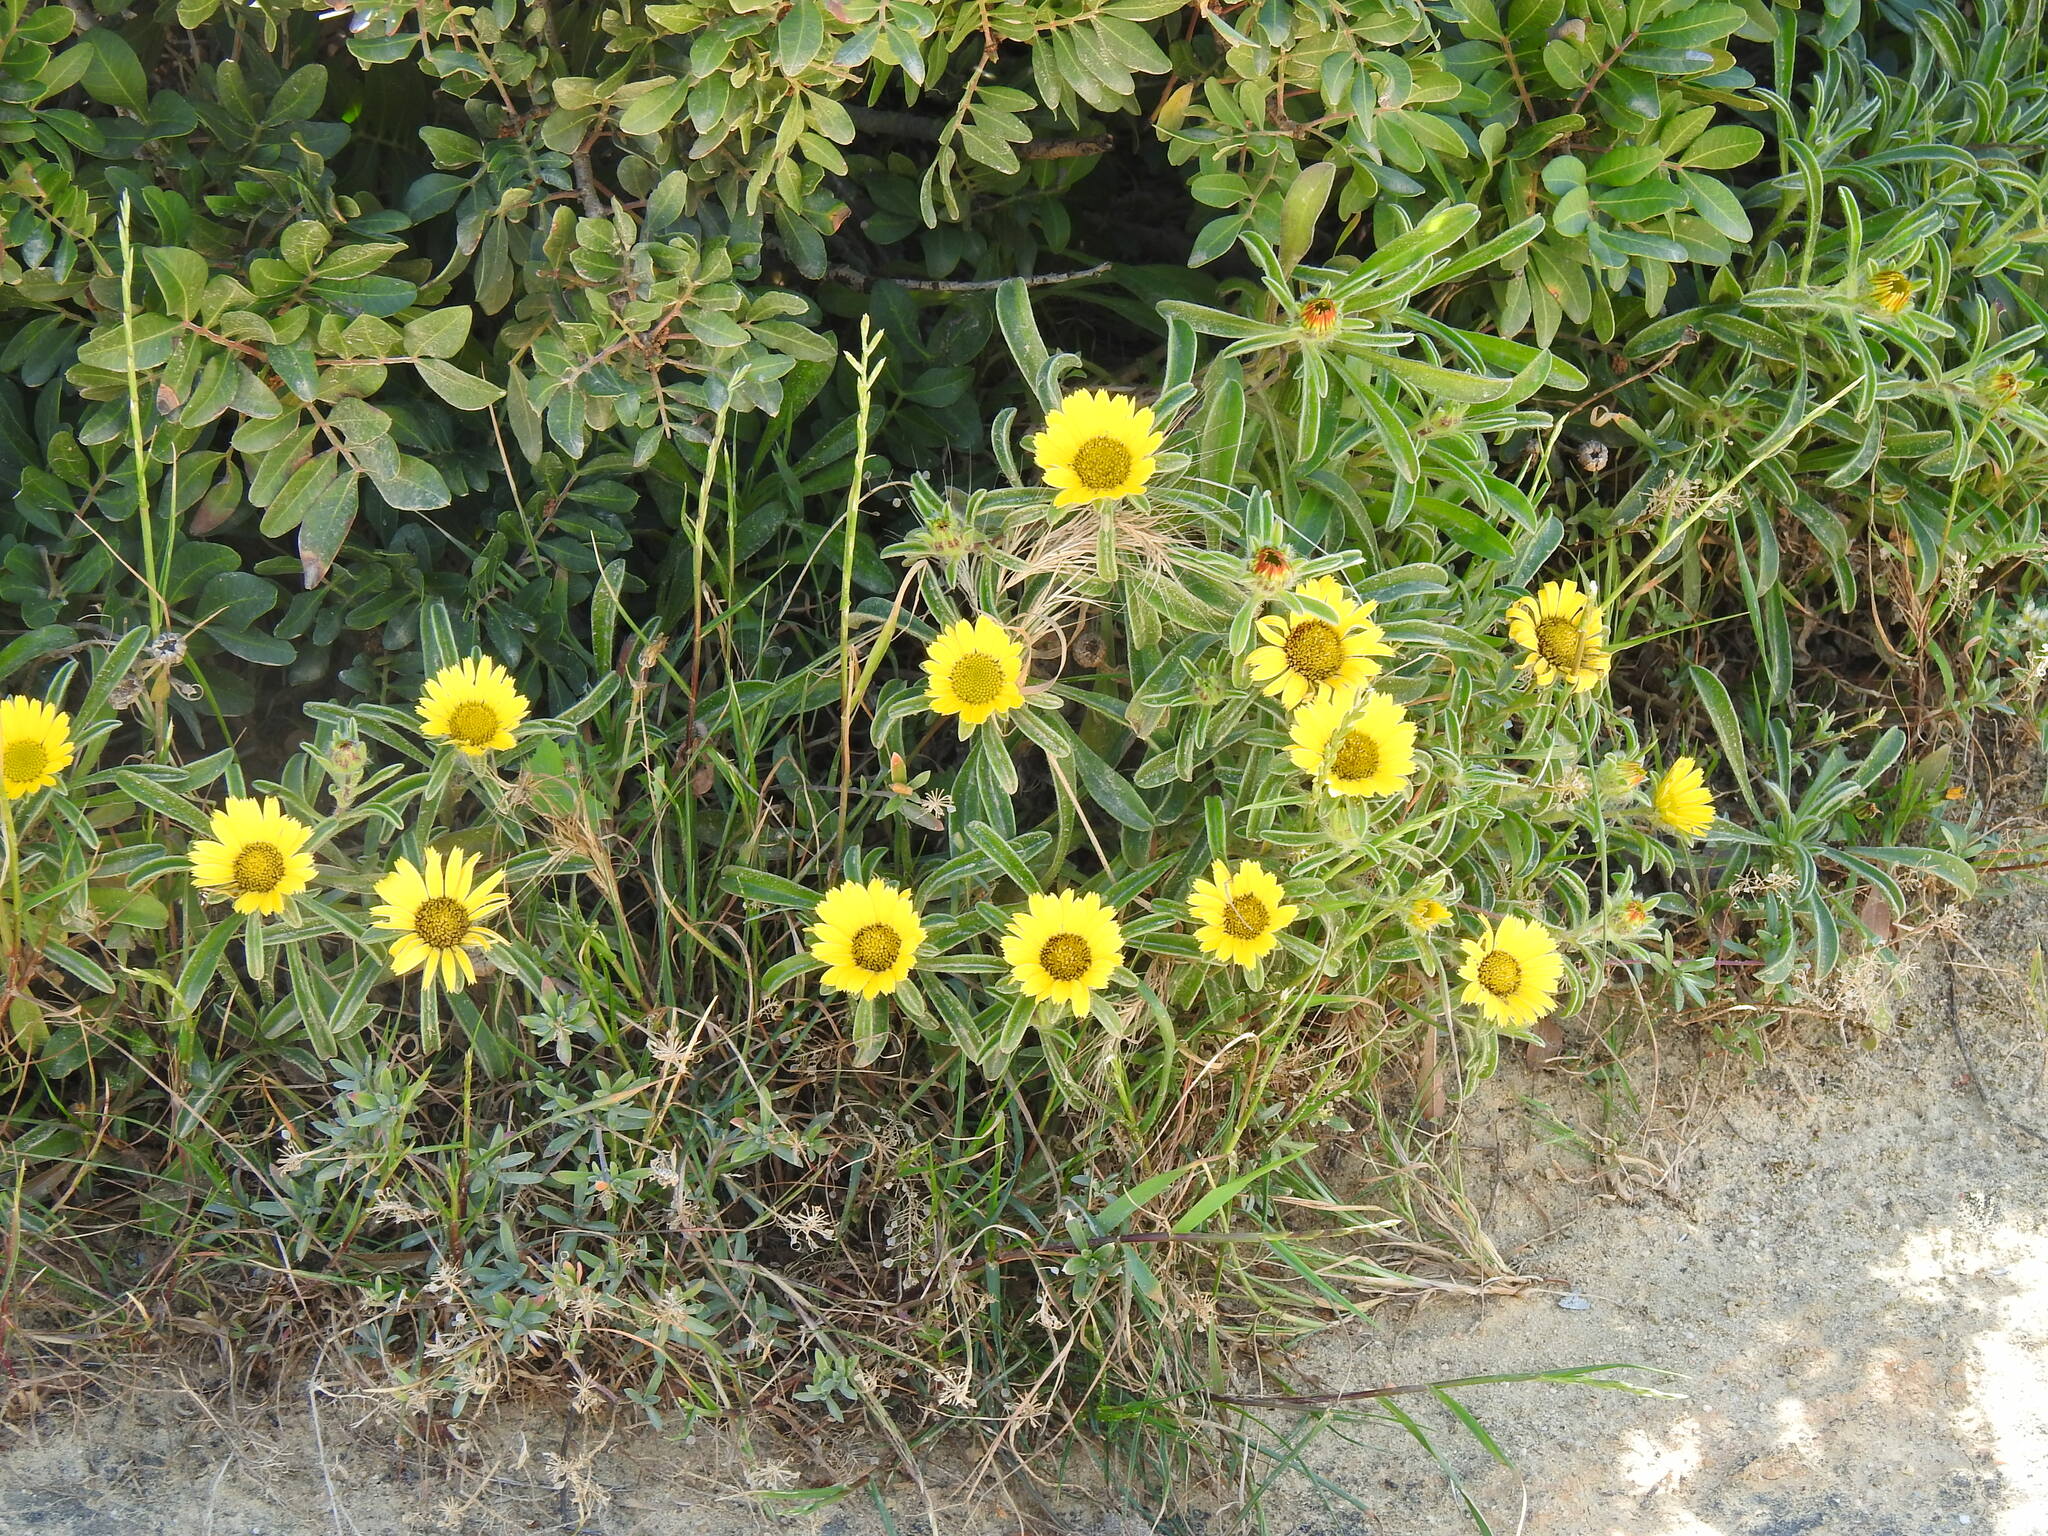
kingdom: Plantae
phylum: Tracheophyta
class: Magnoliopsida
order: Asterales
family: Asteraceae
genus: Pallenis
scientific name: Pallenis maritima
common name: Golden coin daisy
